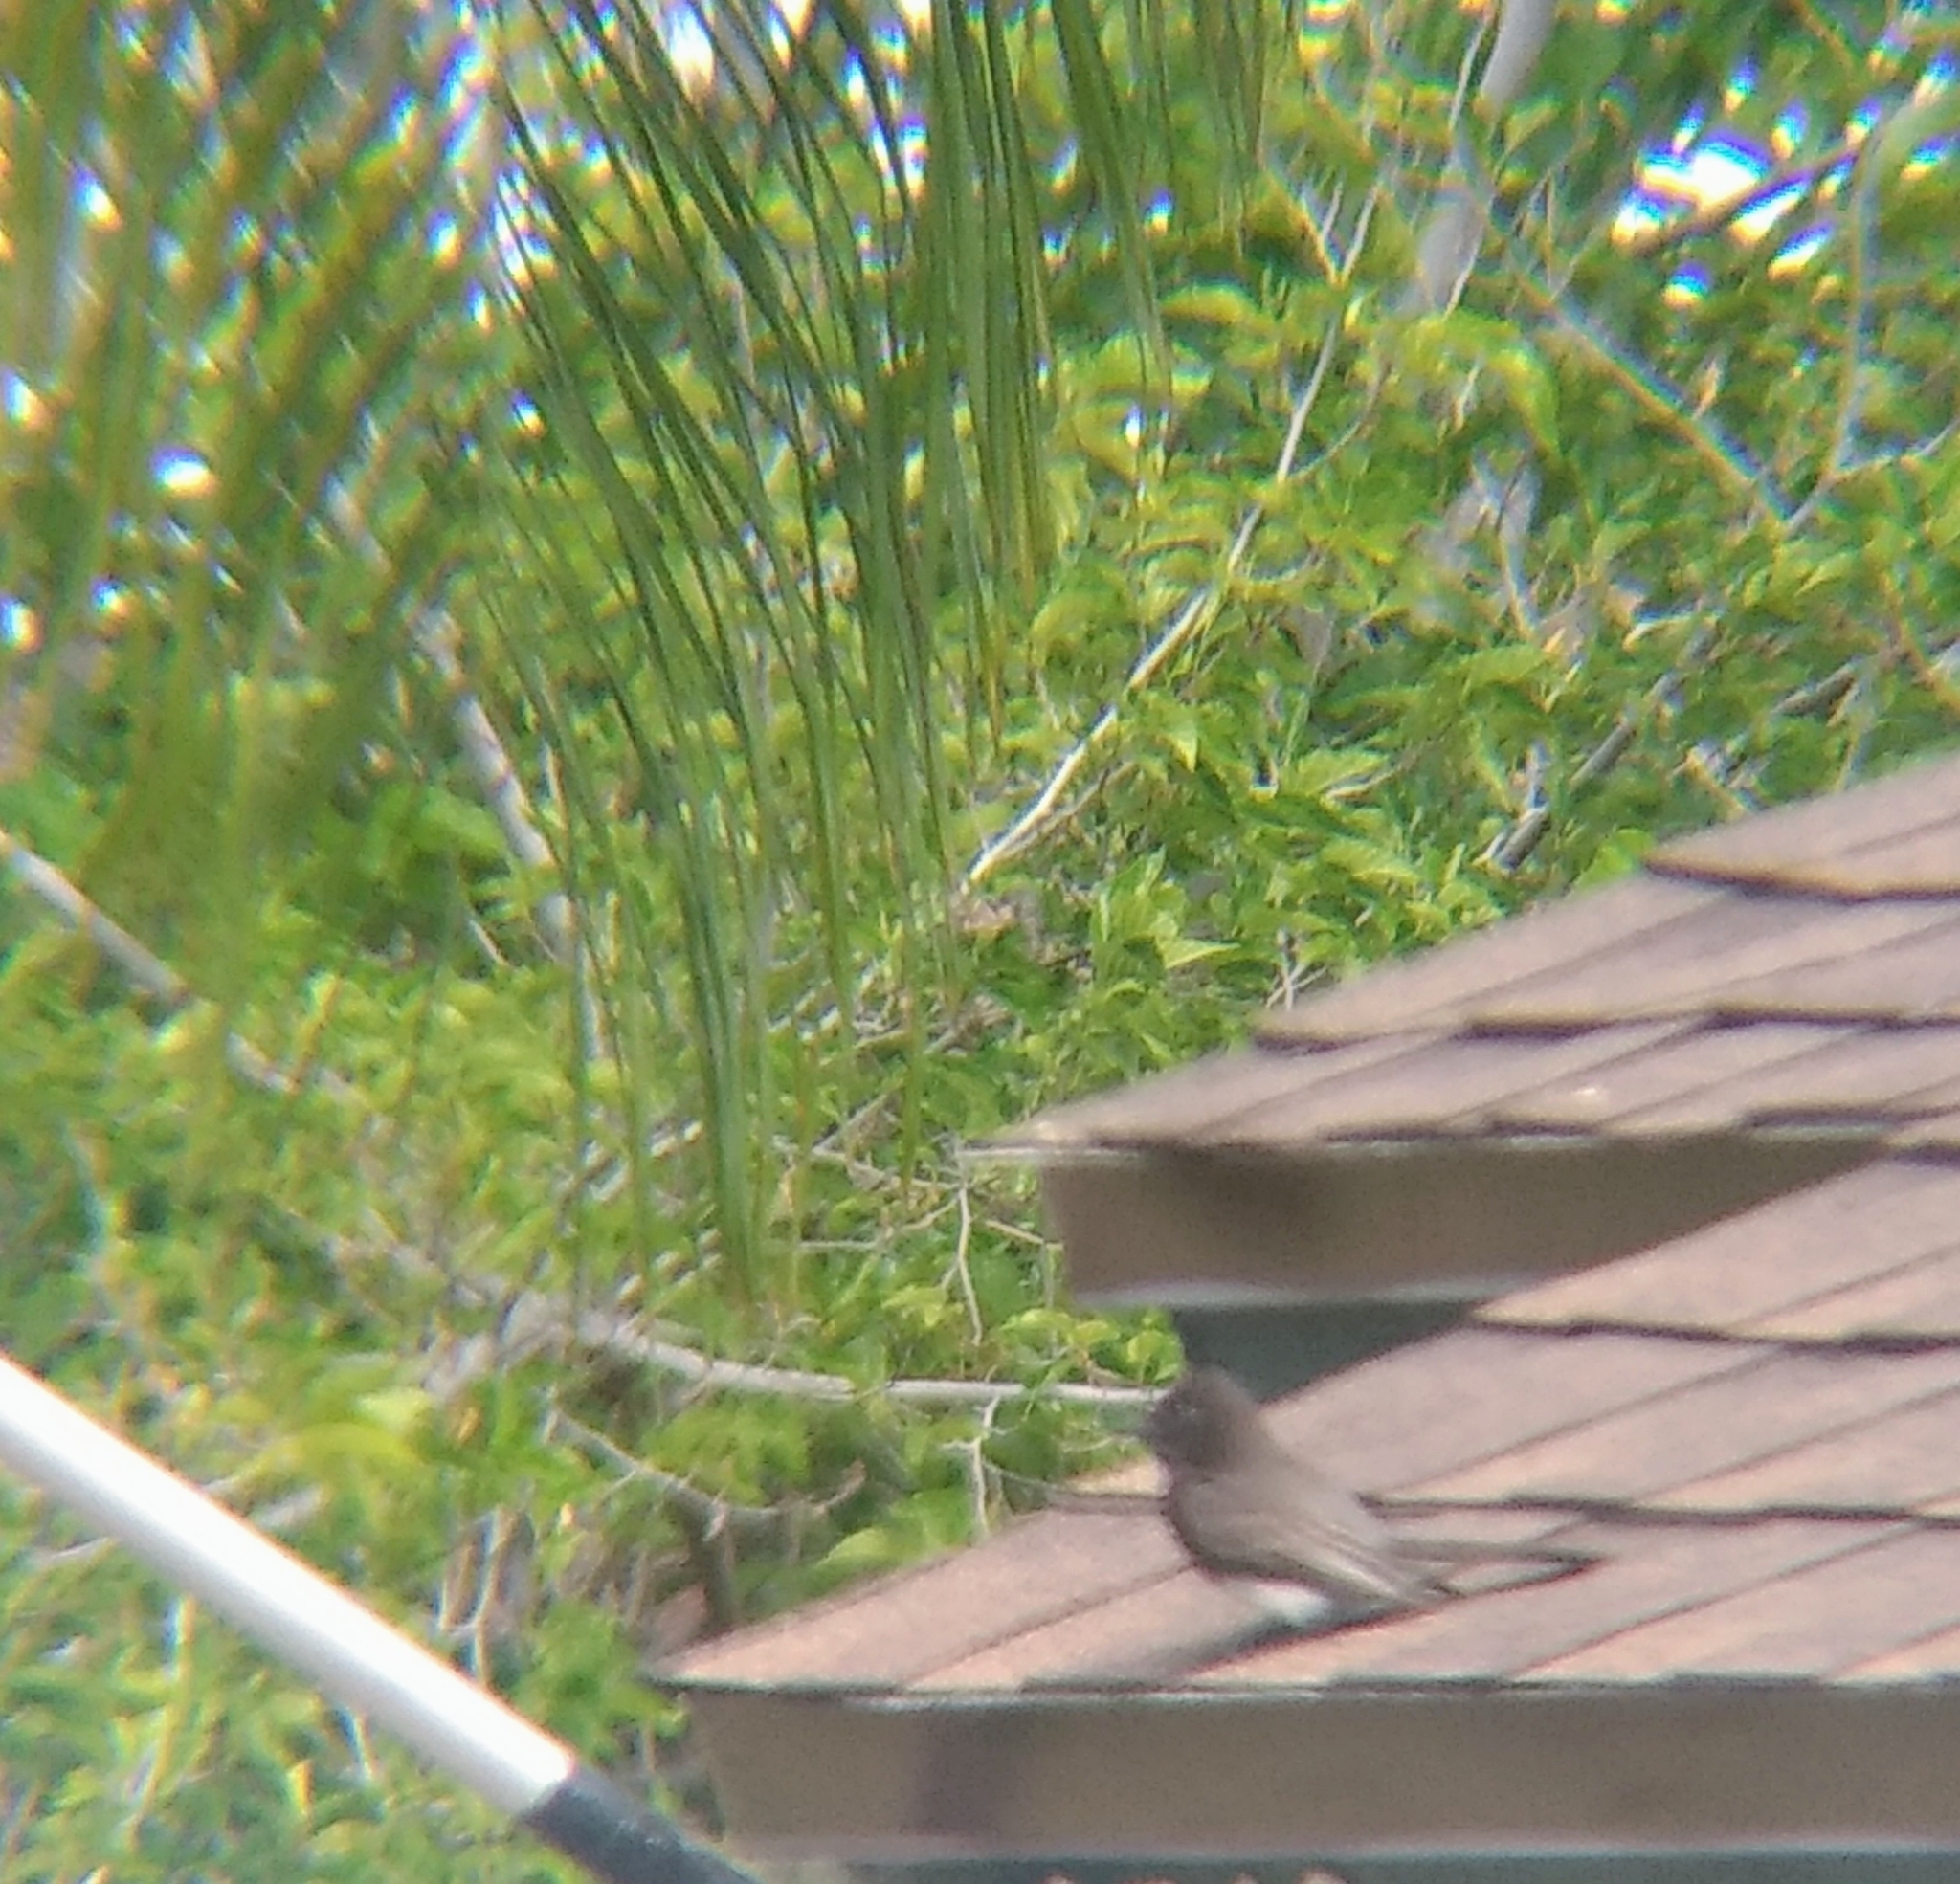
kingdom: Animalia
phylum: Chordata
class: Aves
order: Passeriformes
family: Tyrannidae
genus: Sayornis
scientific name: Sayornis nigricans
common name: Black phoebe
